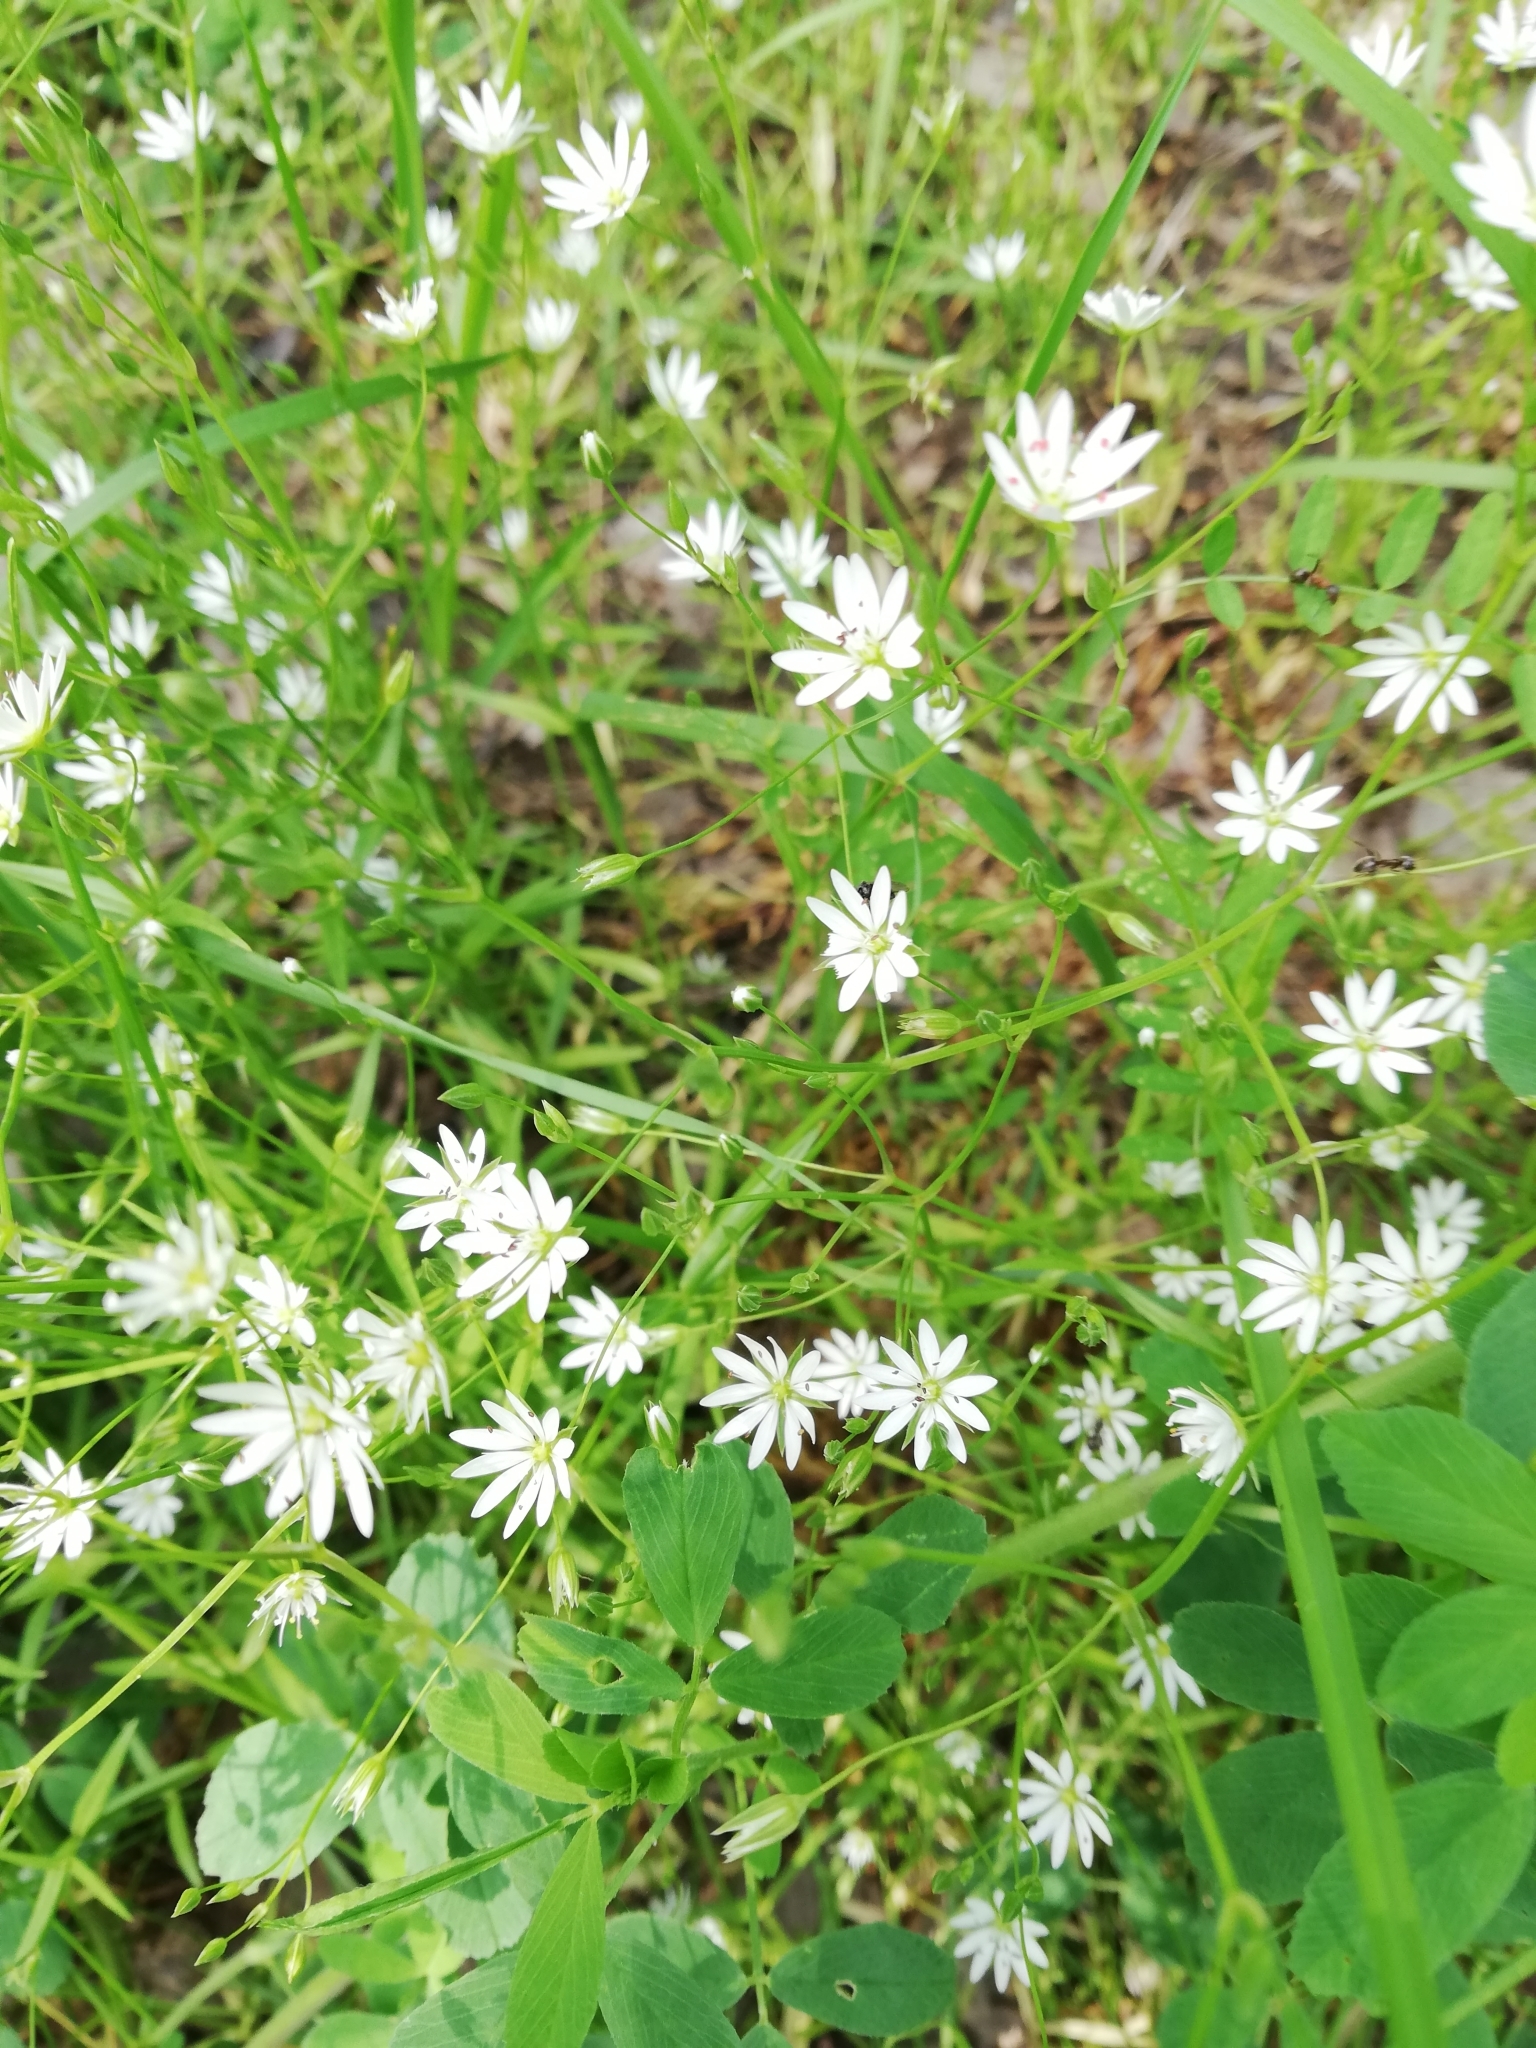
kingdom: Plantae
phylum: Tracheophyta
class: Magnoliopsida
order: Caryophyllales
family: Caryophyllaceae
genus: Stellaria
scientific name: Stellaria graminea
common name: Grass-like starwort
